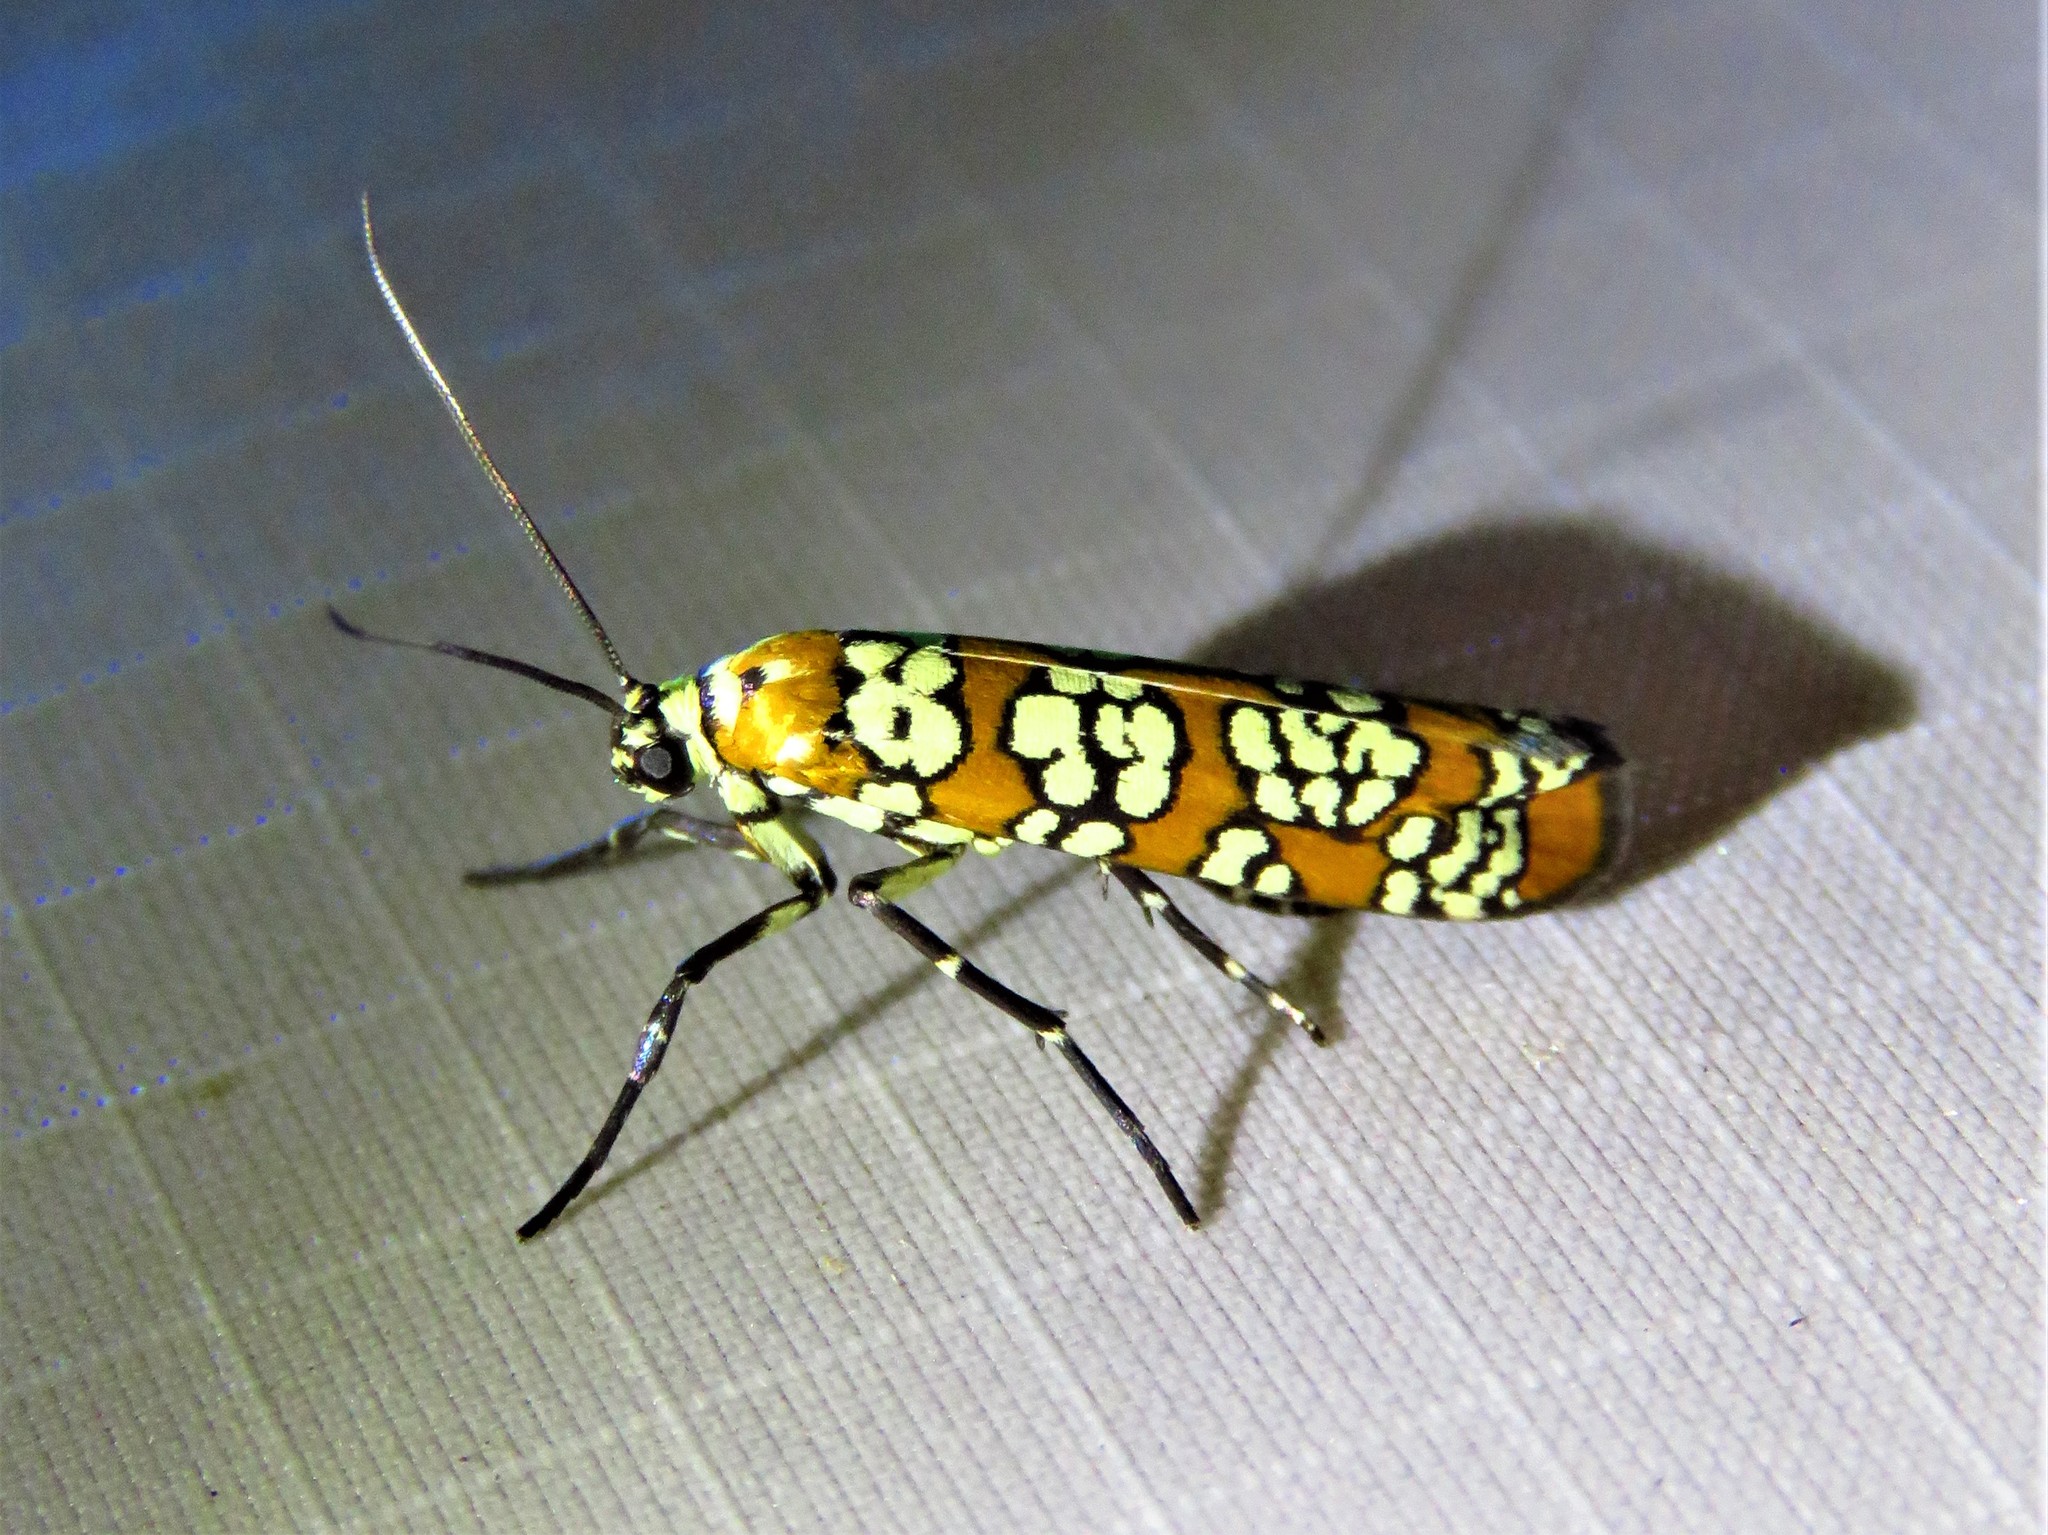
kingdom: Animalia
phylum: Arthropoda
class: Insecta
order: Lepidoptera
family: Attevidae
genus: Atteva
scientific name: Atteva punctella
